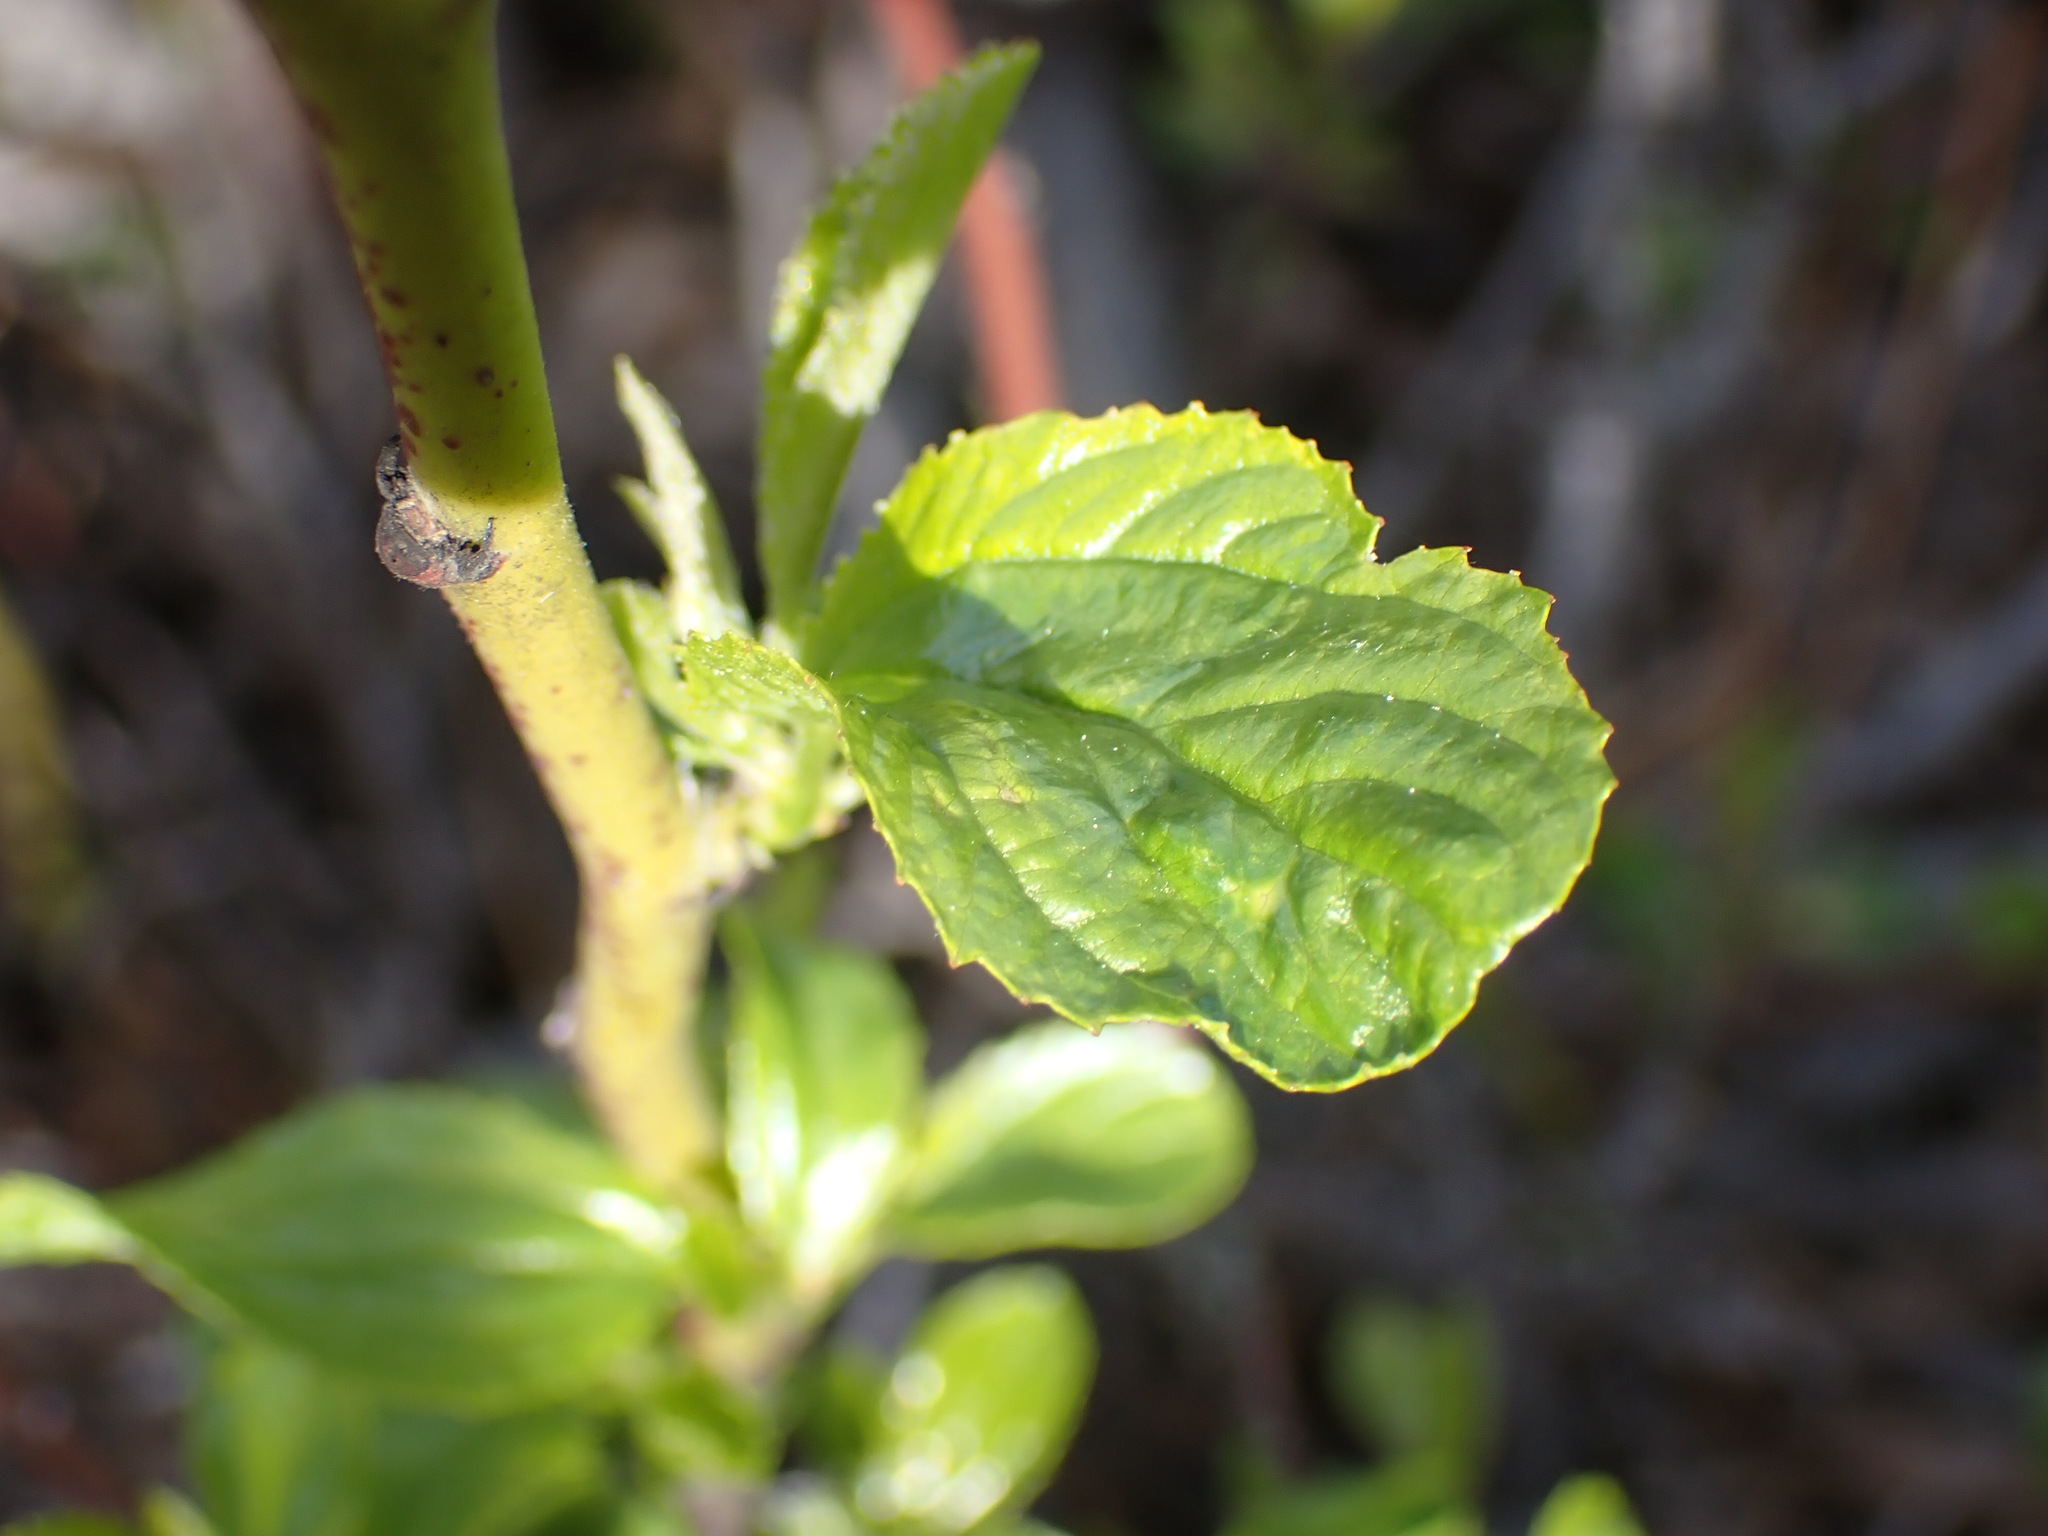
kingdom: Plantae
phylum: Tracheophyta
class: Magnoliopsida
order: Rosales
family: Rhamnaceae
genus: Ceanothus
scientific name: Ceanothus sanguineus
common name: Teatree
